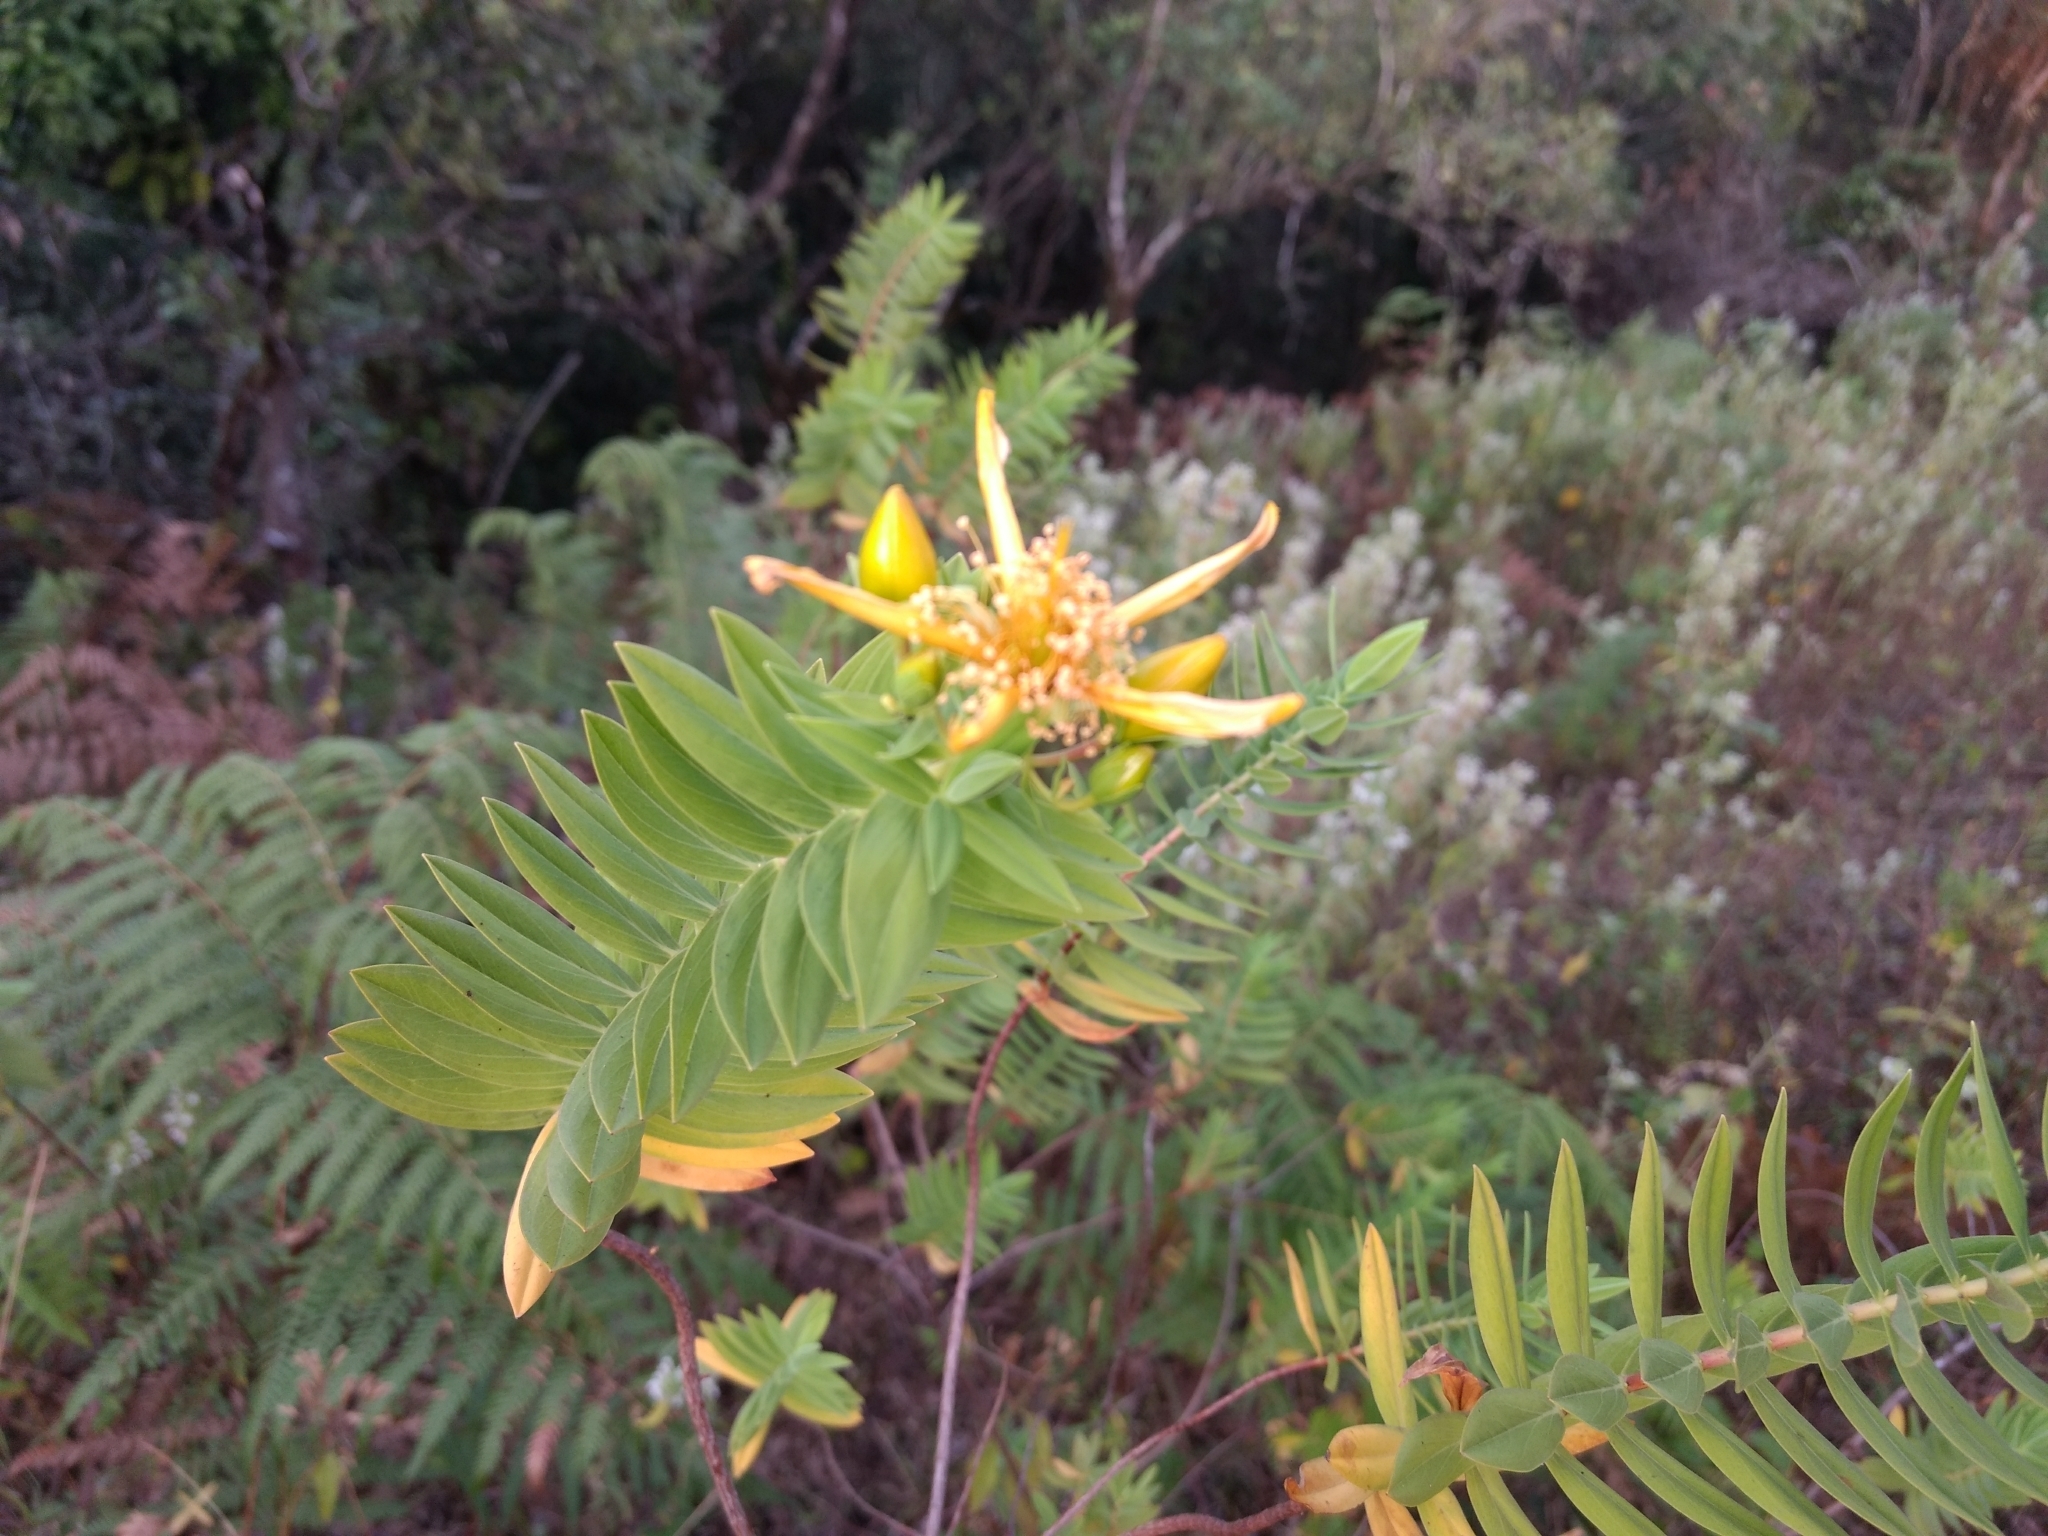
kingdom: Plantae
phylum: Tracheophyta
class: Magnoliopsida
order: Malpighiales
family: Hypericaceae
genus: Hypericum
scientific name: Hypericum mysurense
